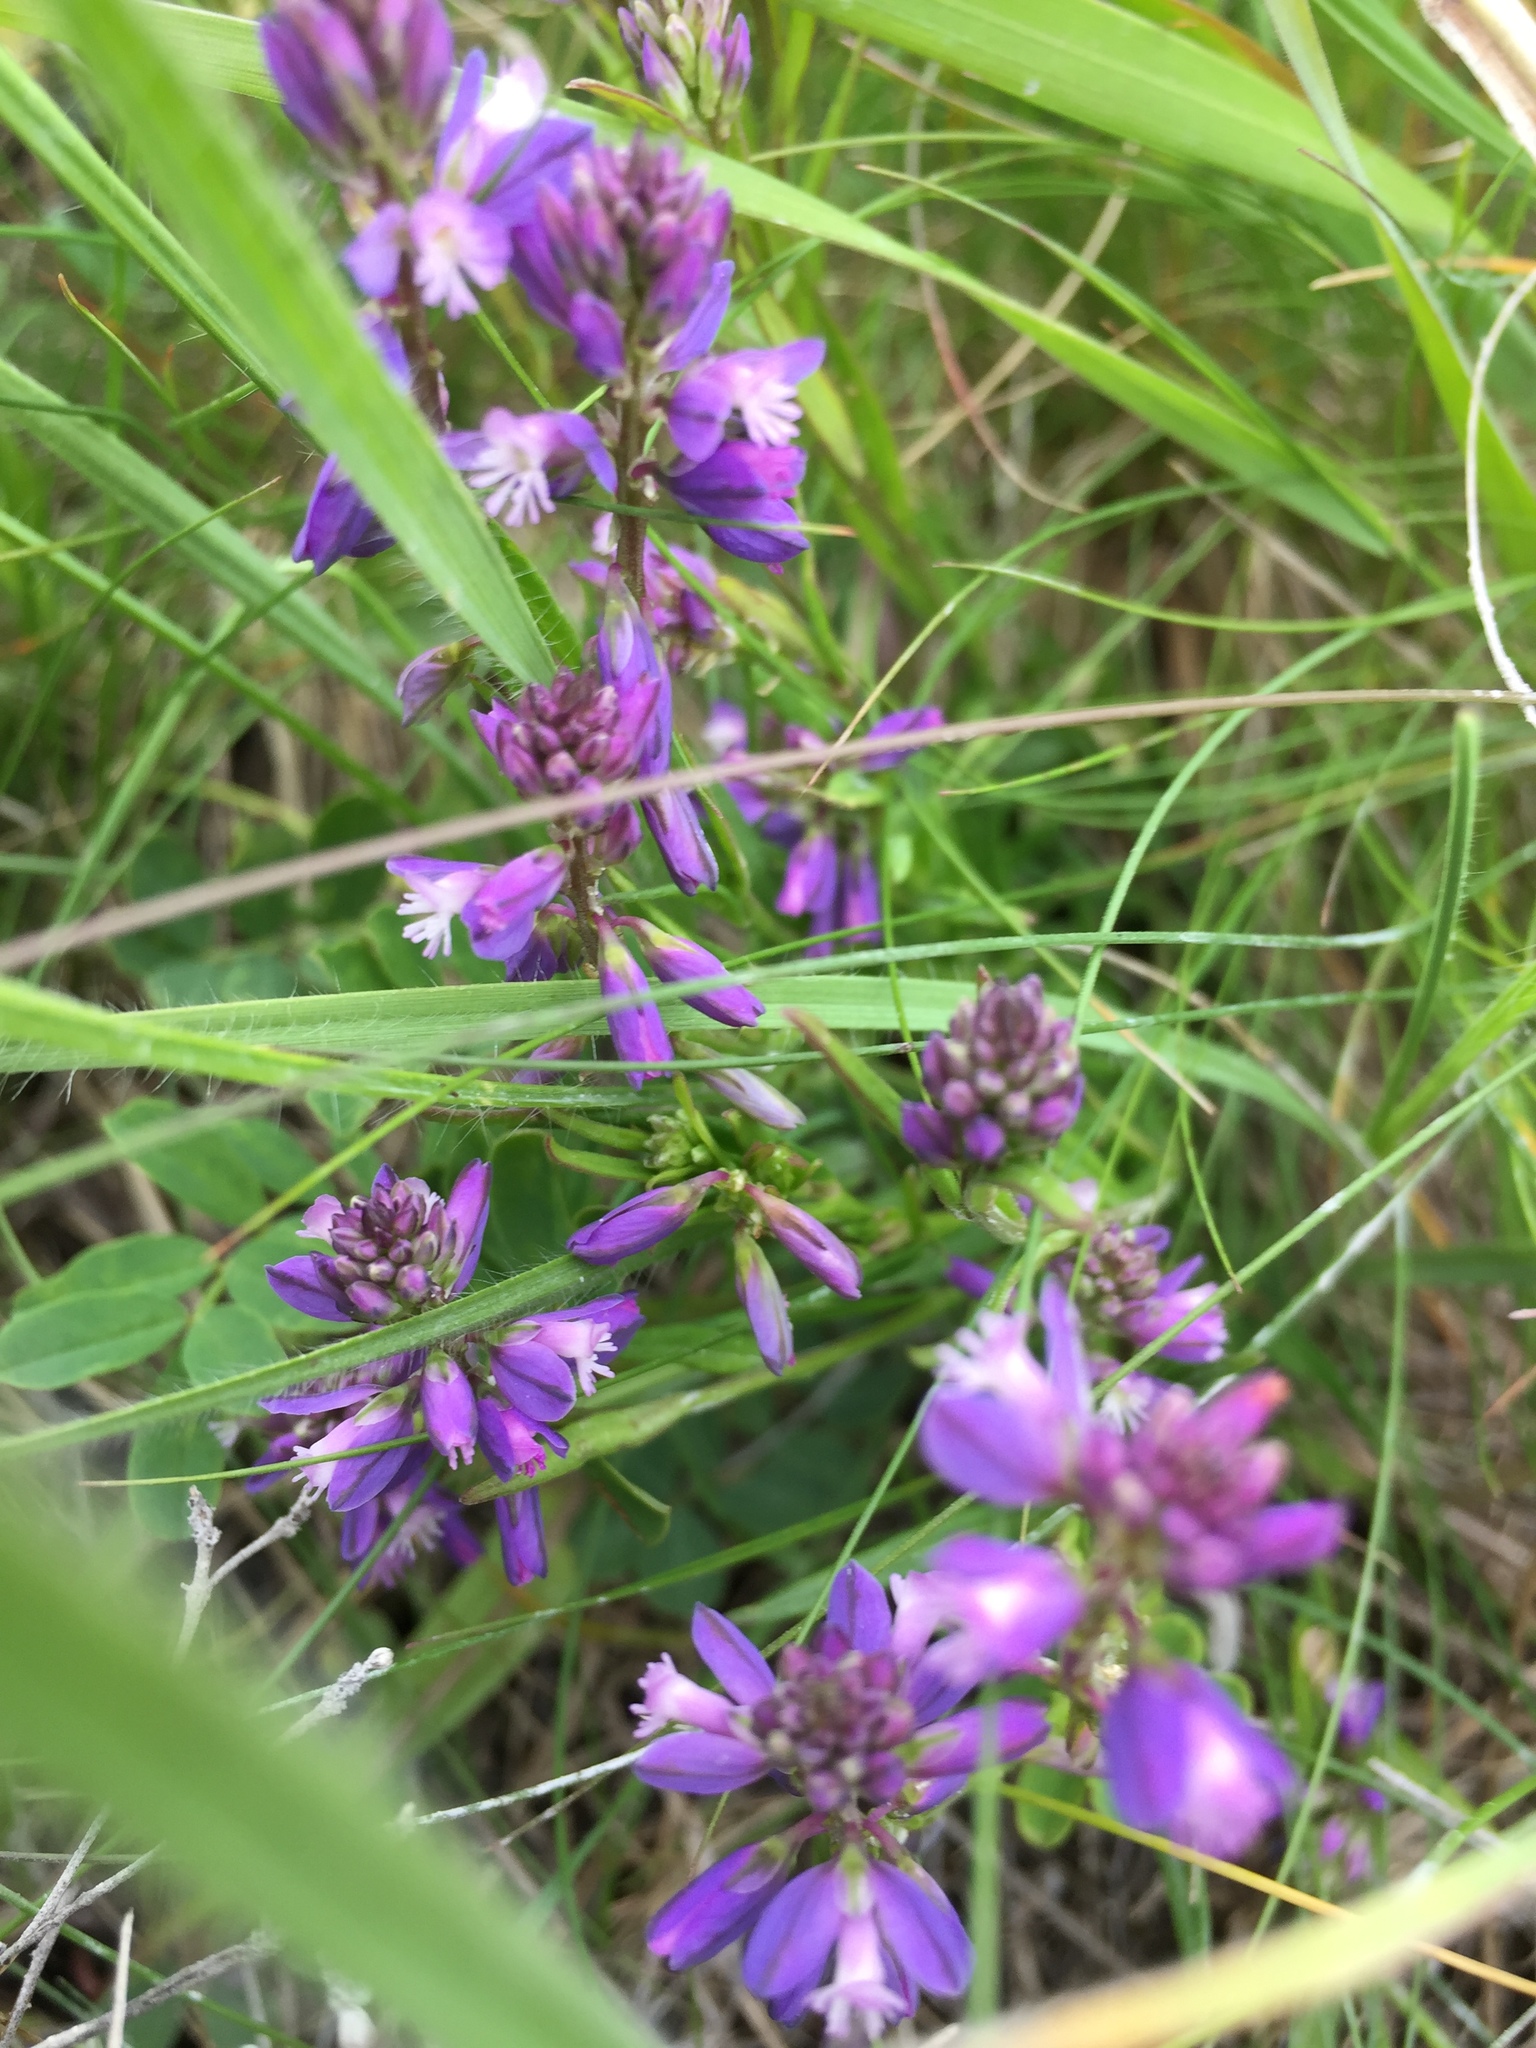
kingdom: Plantae
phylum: Tracheophyta
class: Magnoliopsida
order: Fabales
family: Polygalaceae
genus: Polygala
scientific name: Polygala comosa
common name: Tufted milkwort
